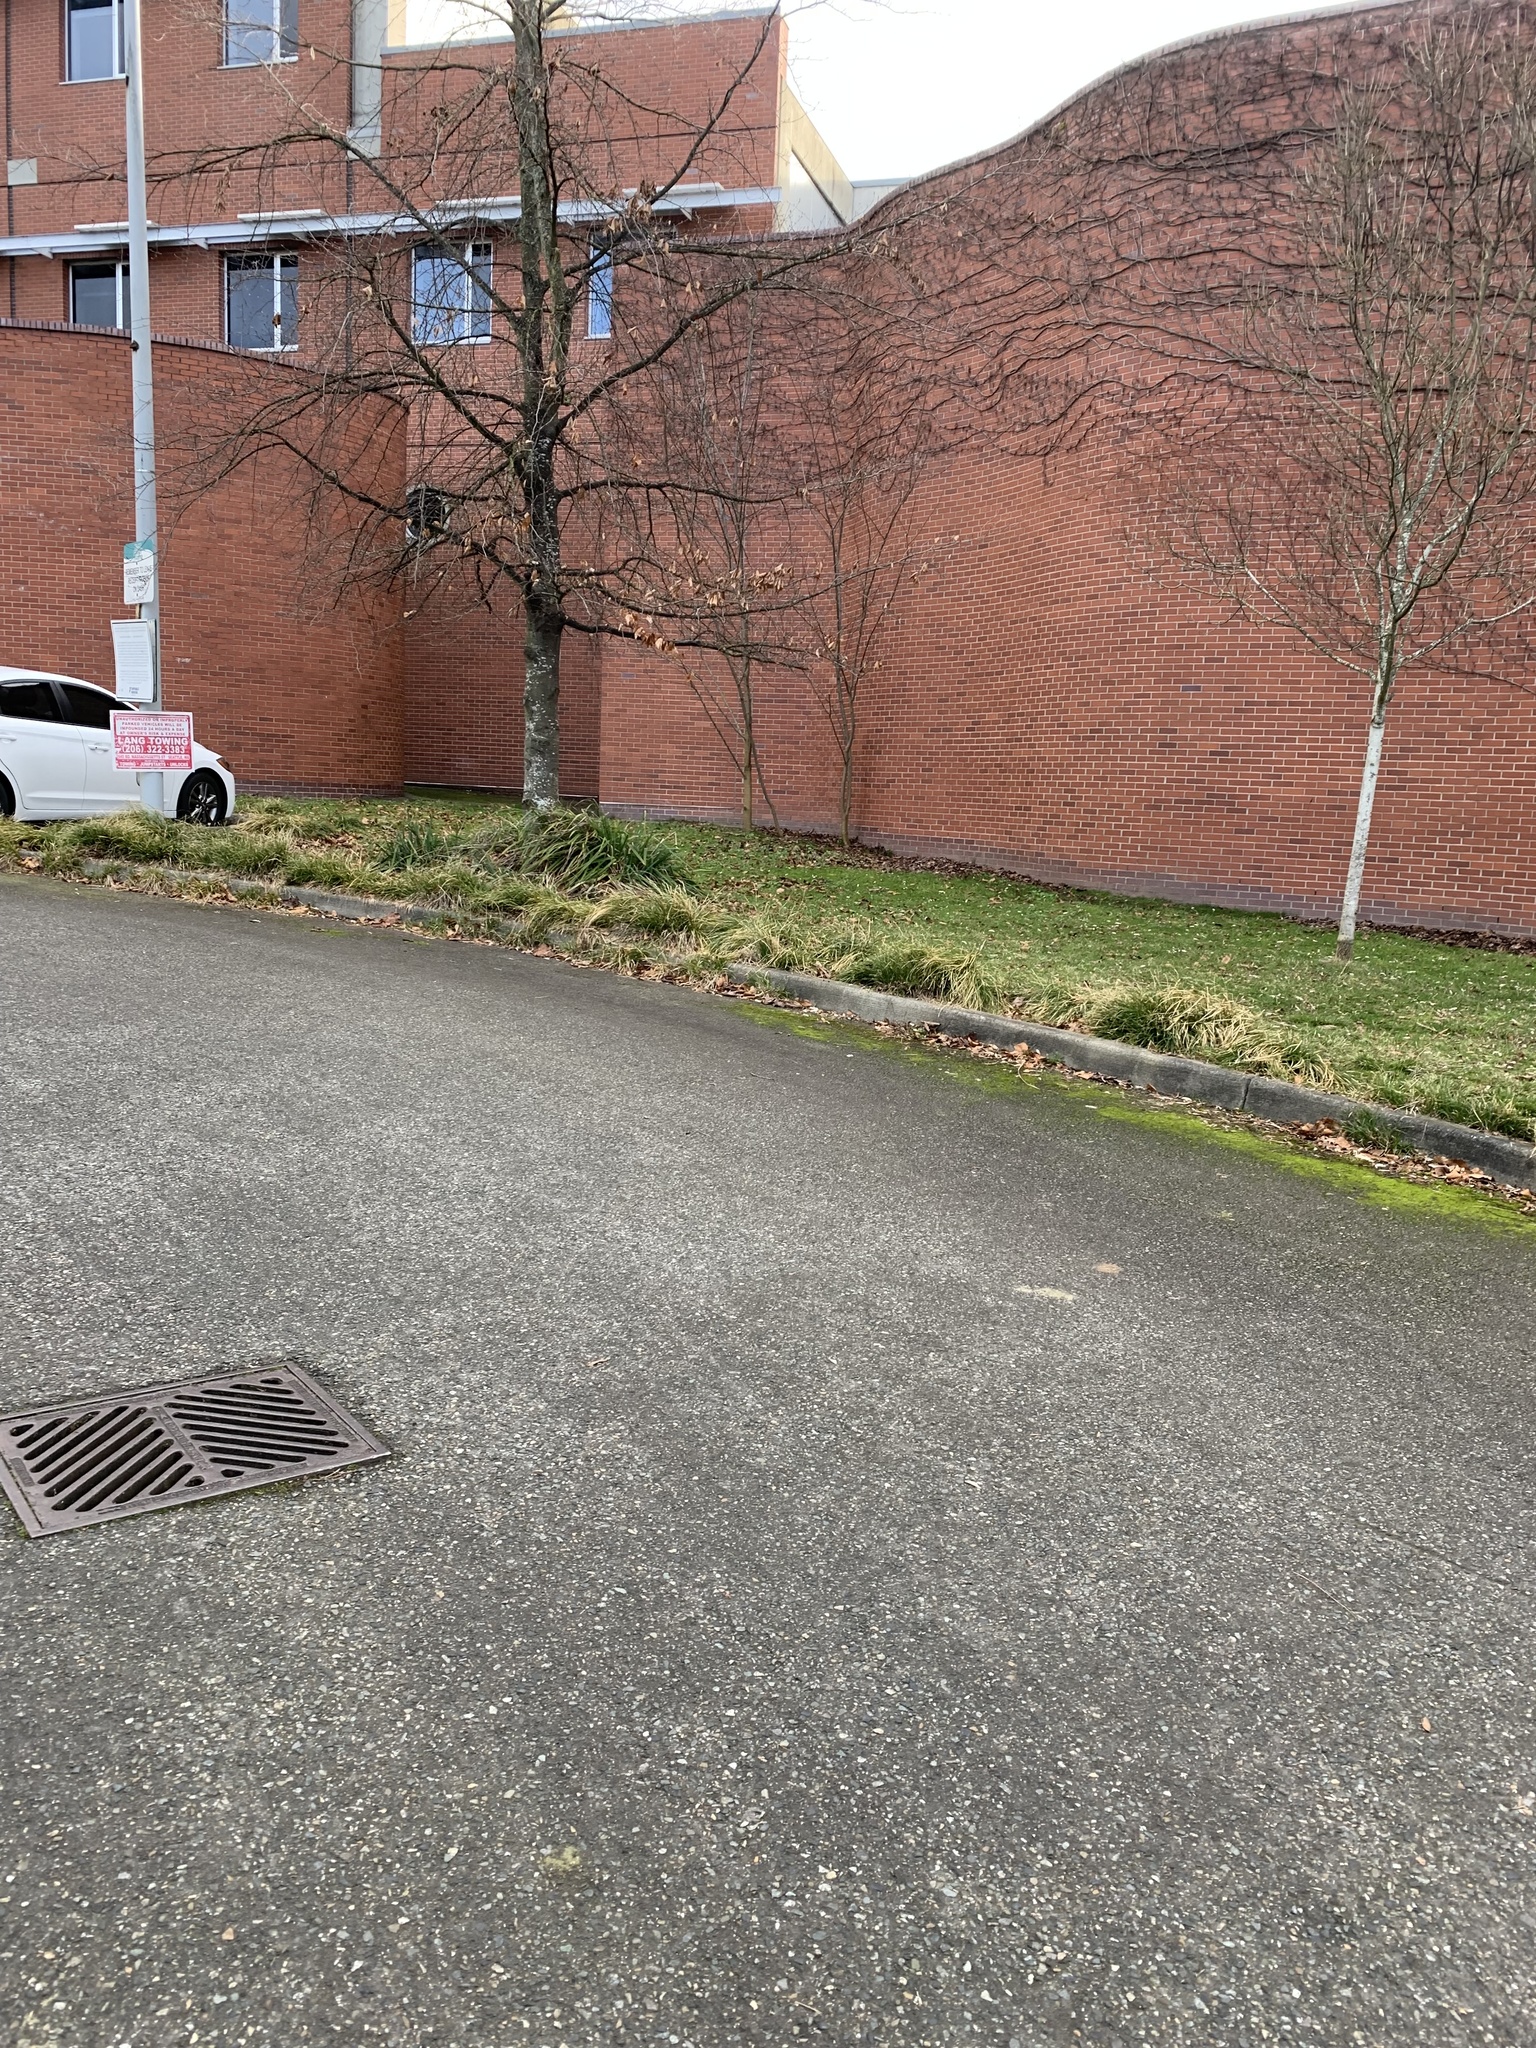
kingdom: Plantae
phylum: Tracheophyta
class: Liliopsida
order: Poales
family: Cyperaceae
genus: Carex
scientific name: Carex leersii
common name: Leers' sedge
